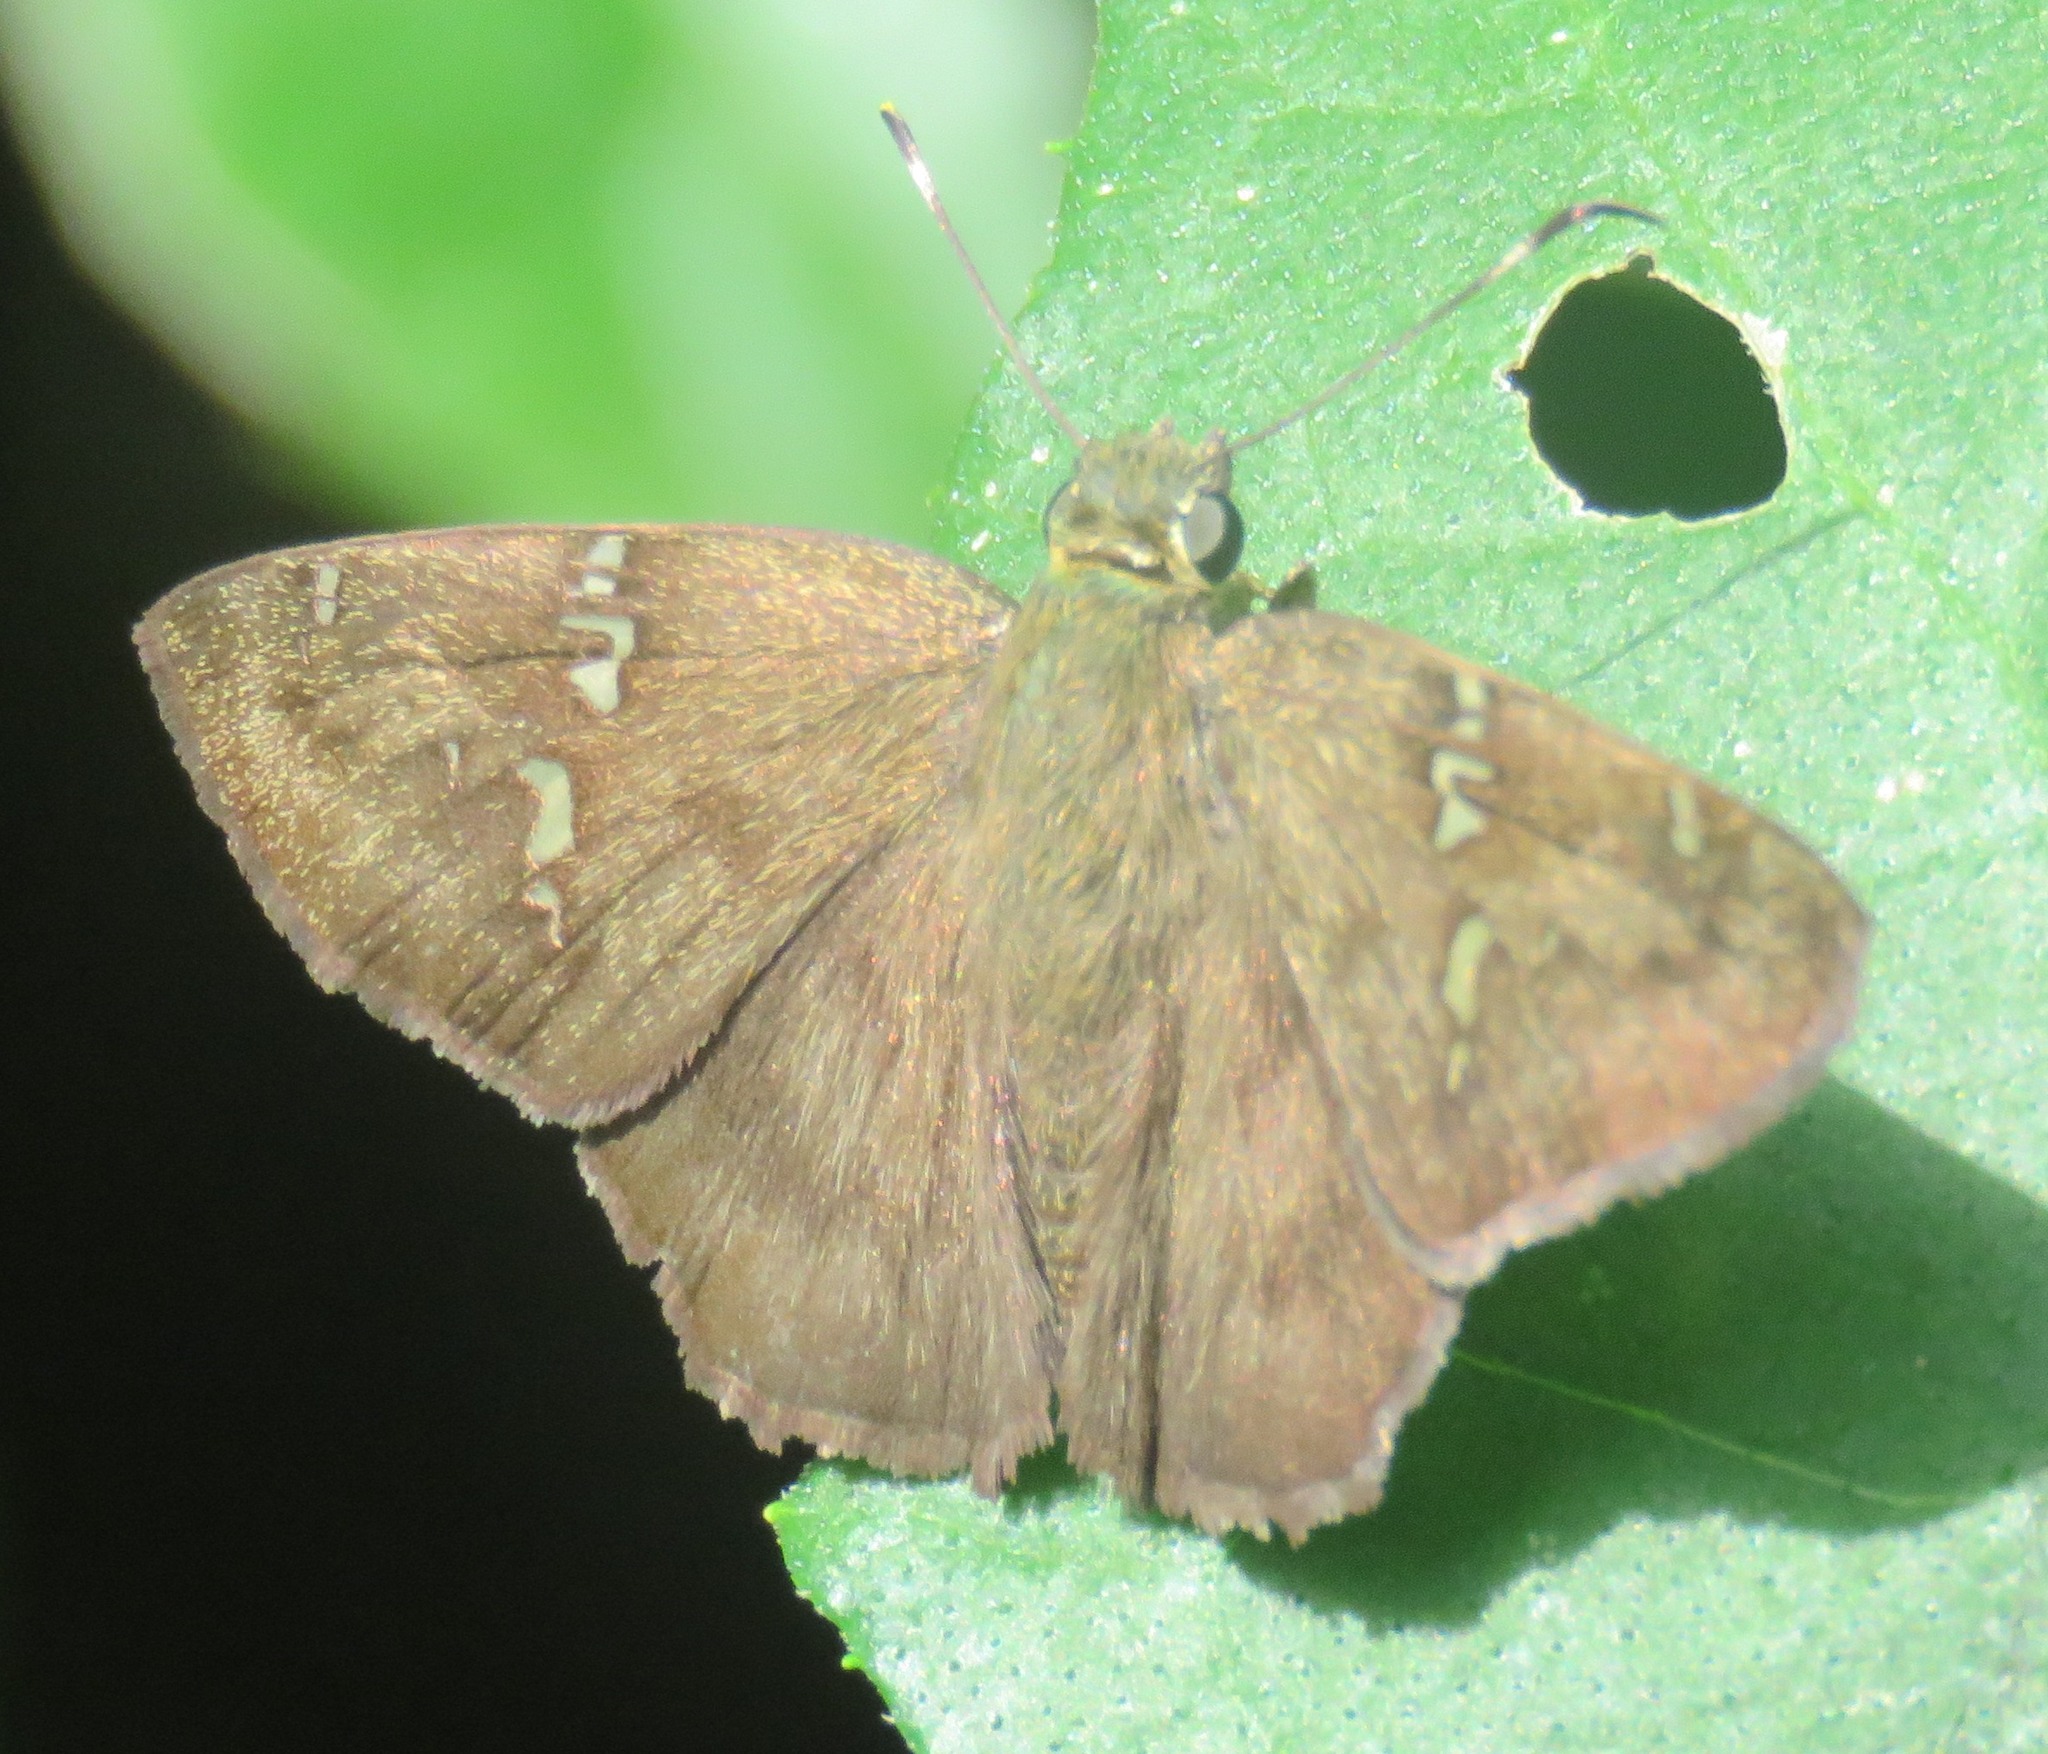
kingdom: Animalia
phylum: Arthropoda
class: Insecta
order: Lepidoptera
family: Hesperiidae
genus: Autochton
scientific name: Autochton potrillo
